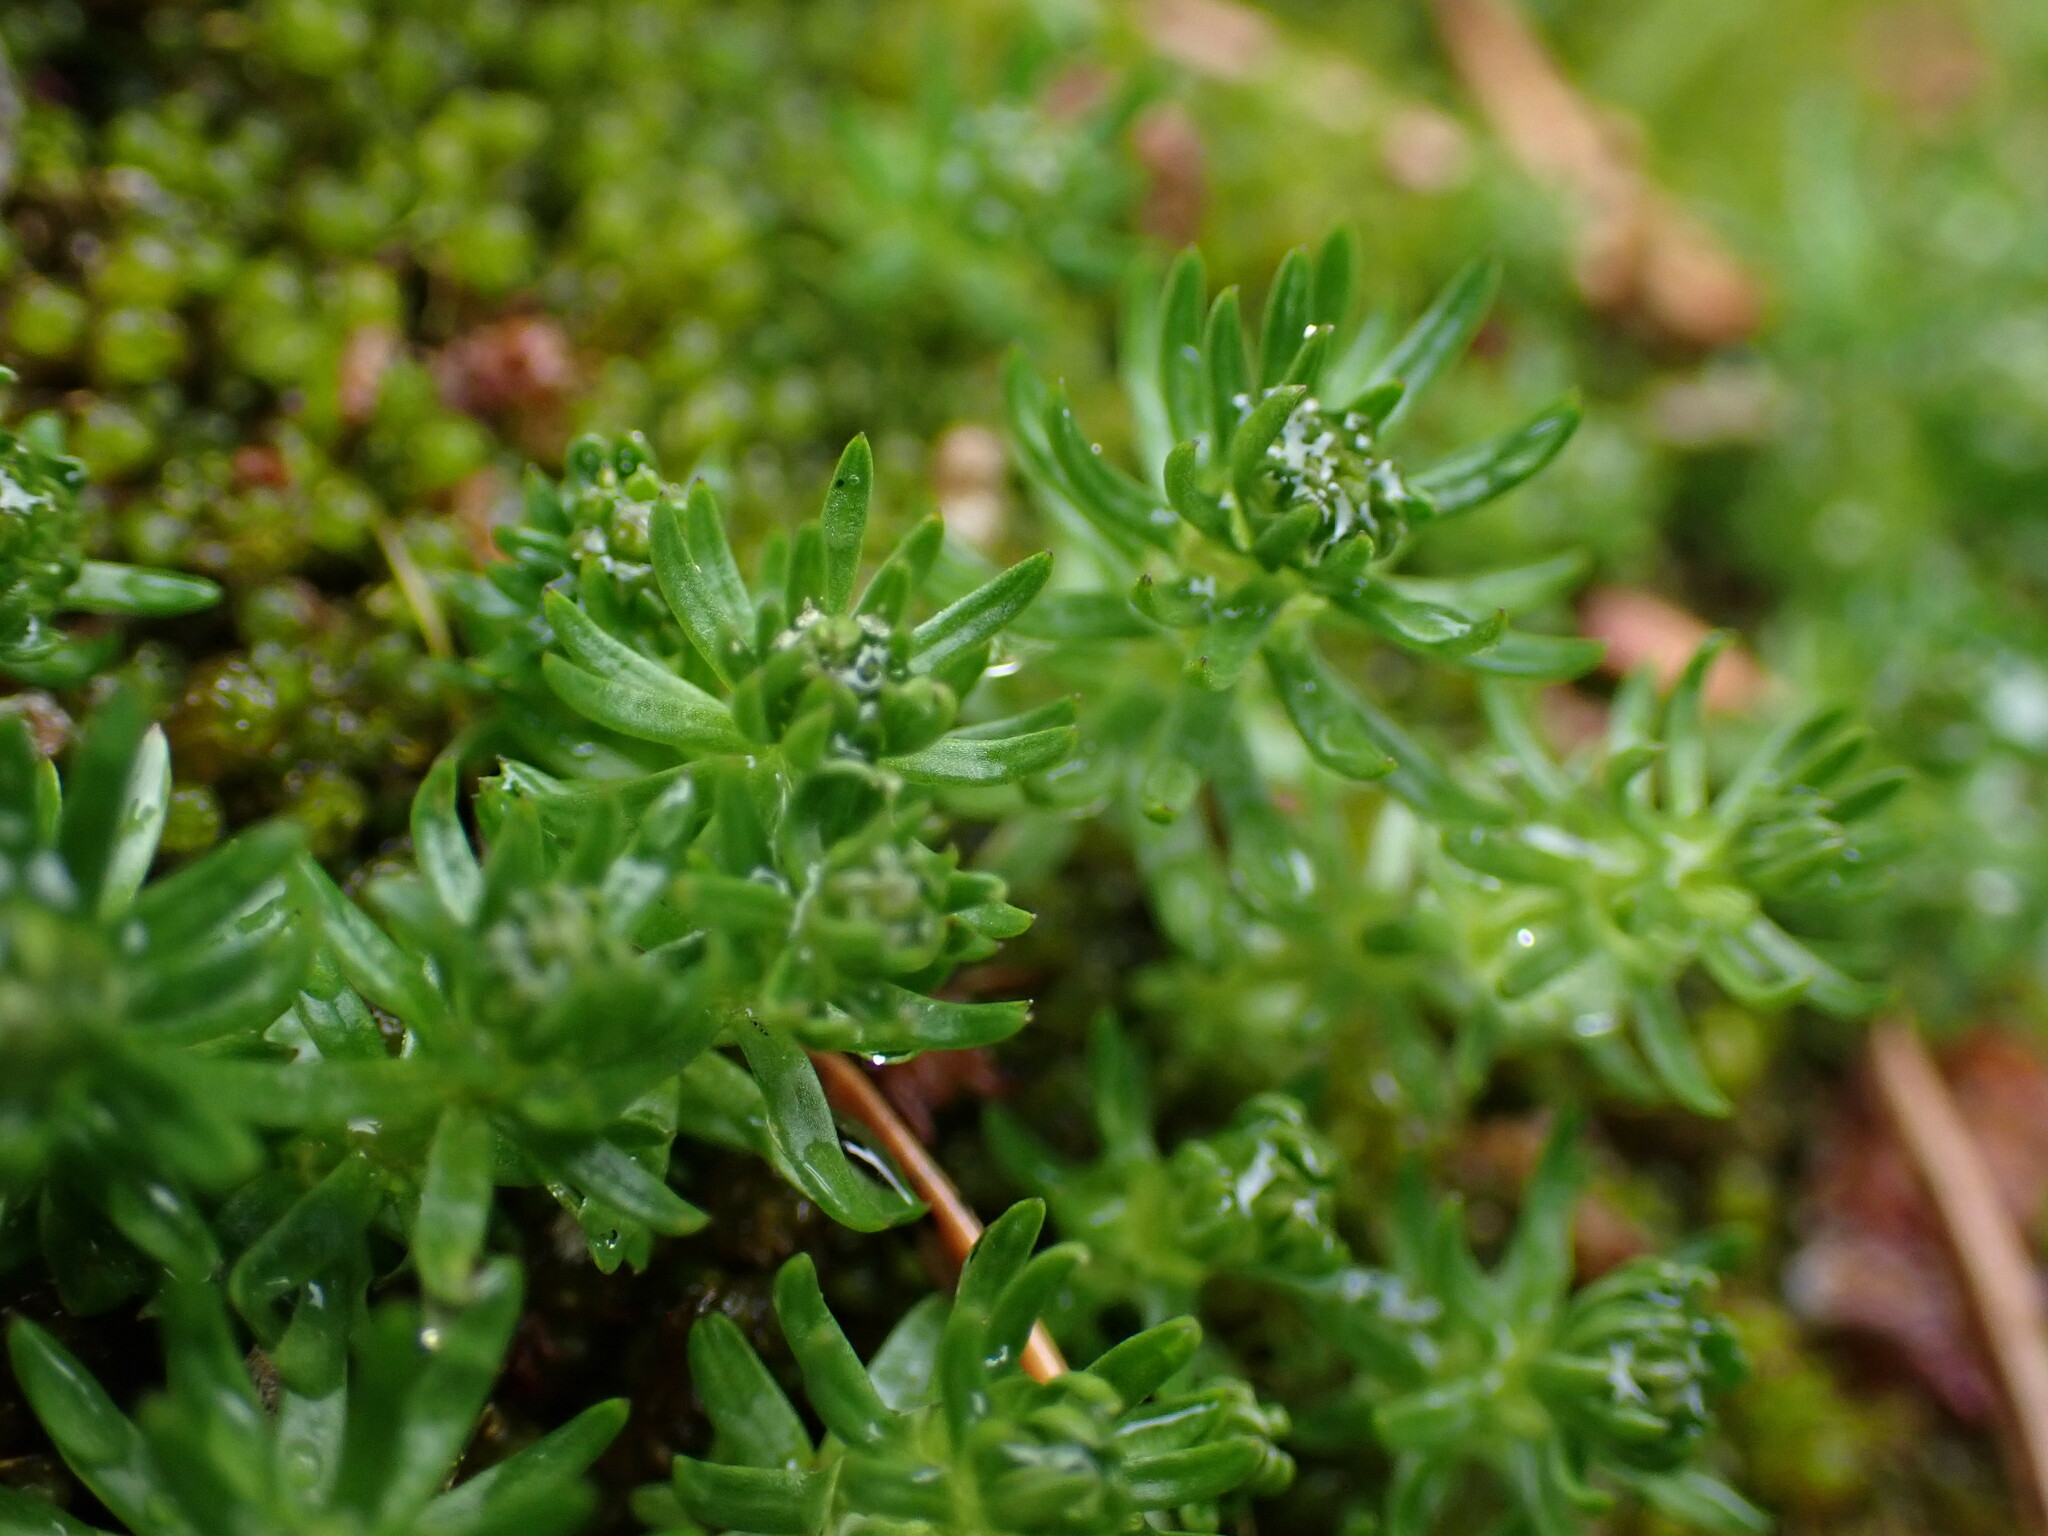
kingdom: Plantae
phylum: Tracheophyta
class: Magnoliopsida
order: Lamiales
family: Plantaginaceae
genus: Hippuris
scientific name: Hippuris montana
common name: Mountain mare's-tail
